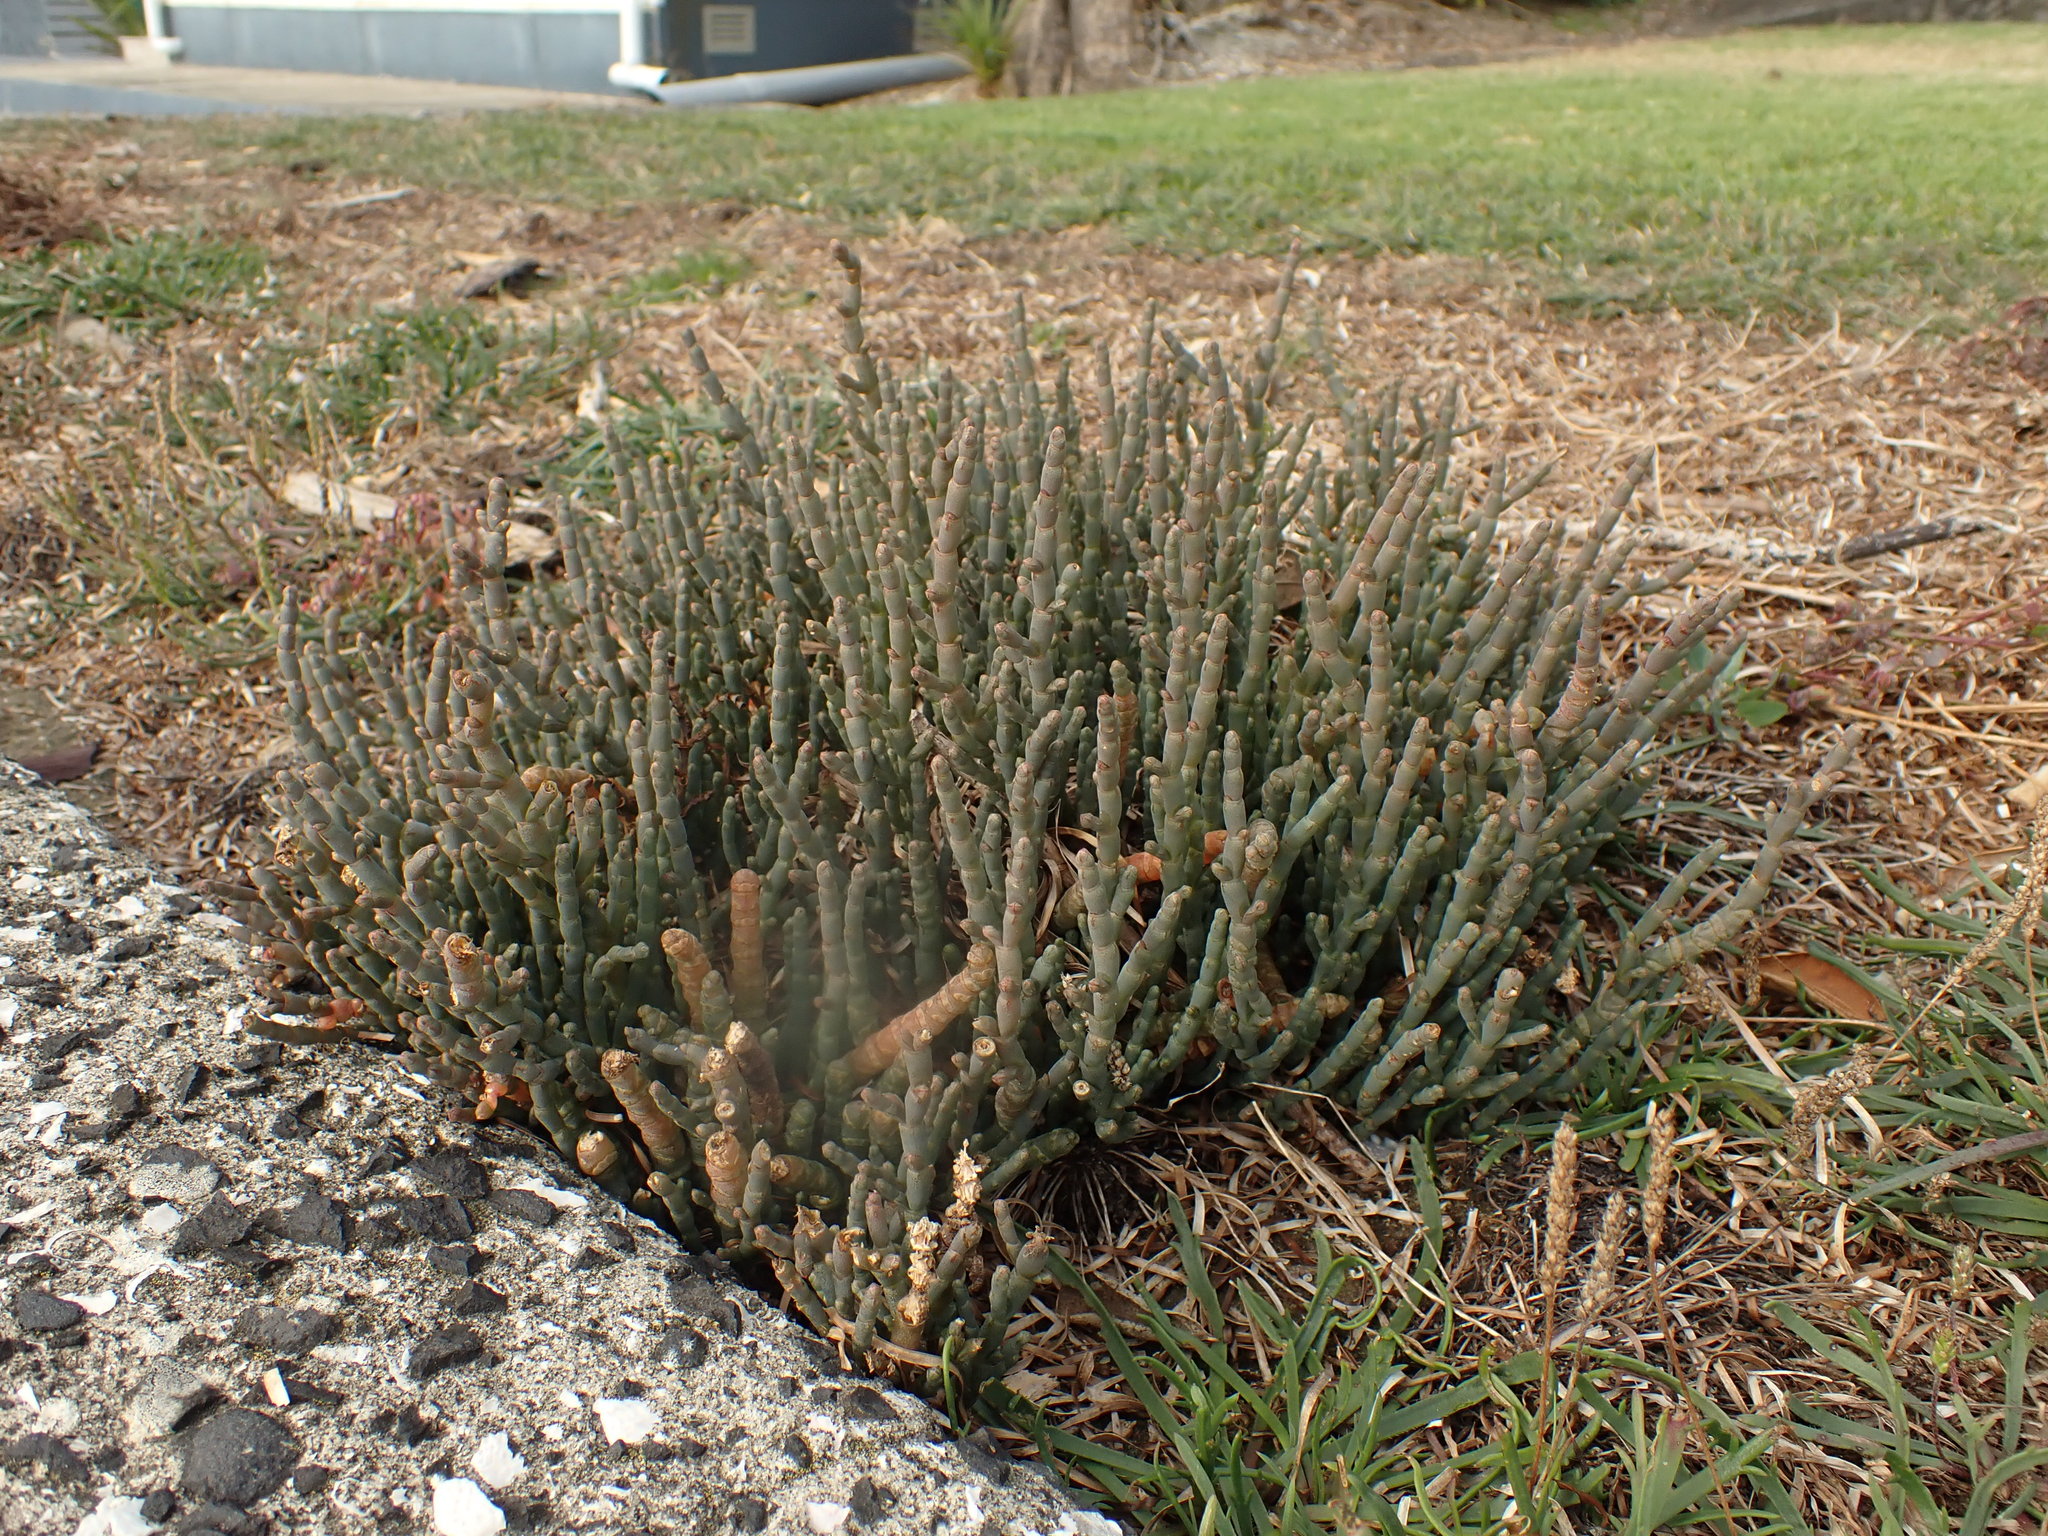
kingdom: Plantae
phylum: Tracheophyta
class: Magnoliopsida
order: Caryophyllales
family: Amaranthaceae
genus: Salicornia
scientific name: Salicornia quinqueflora
